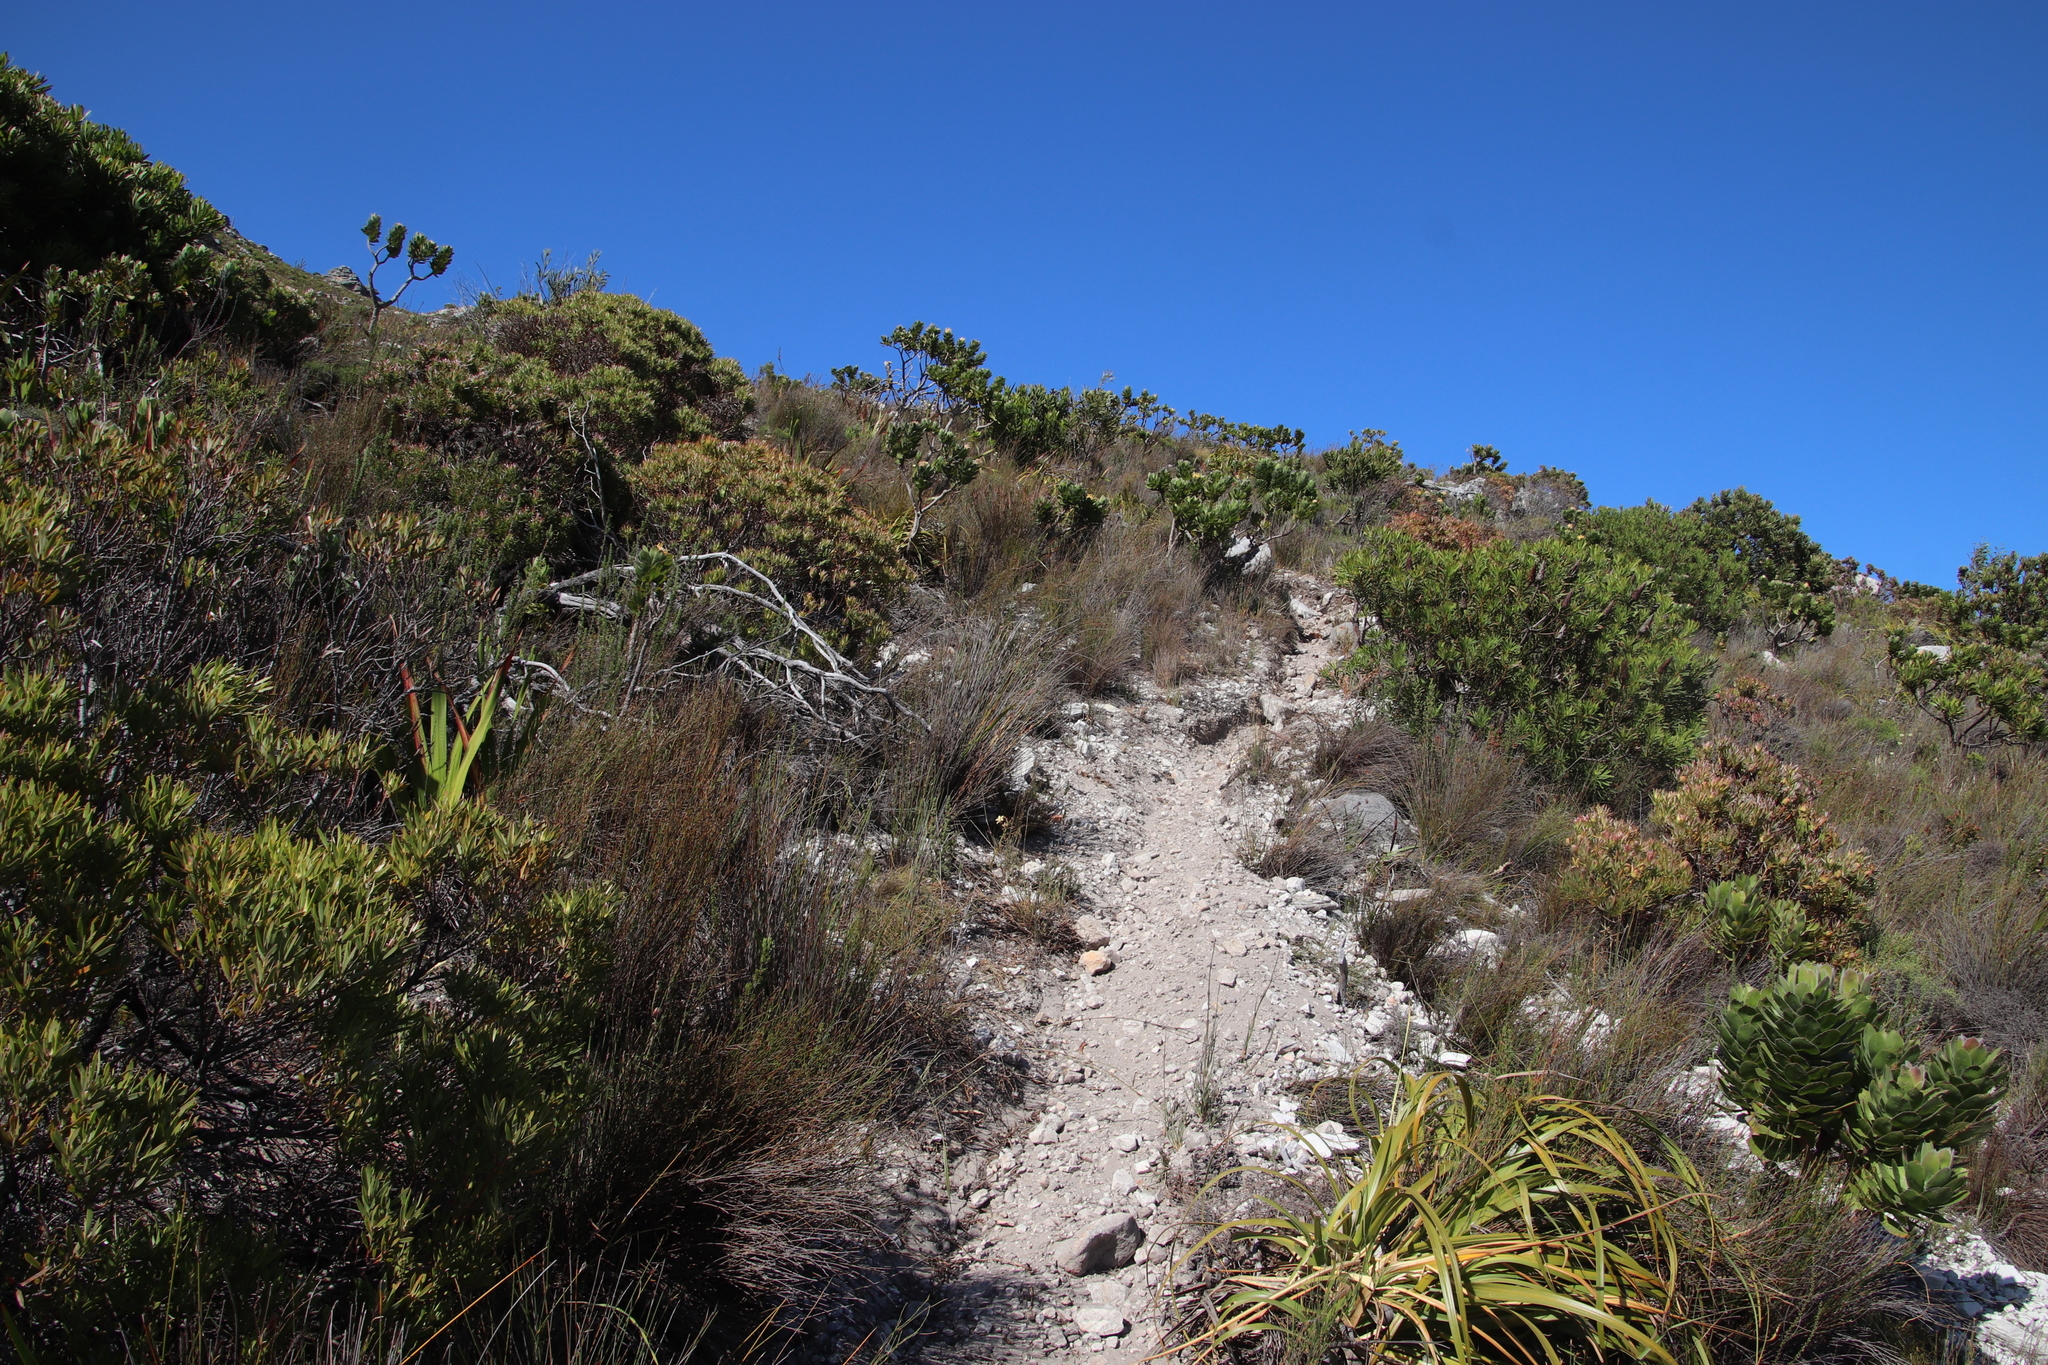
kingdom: Plantae
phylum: Tracheophyta
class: Magnoliopsida
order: Proteales
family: Proteaceae
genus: Protea
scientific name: Protea repens
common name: Sugarbush
